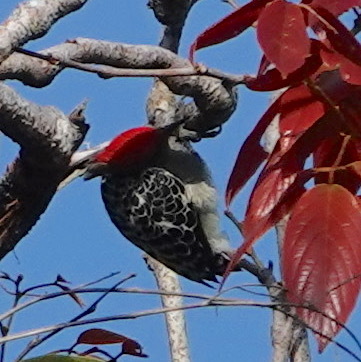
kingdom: Animalia
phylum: Chordata
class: Aves
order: Piciformes
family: Picidae
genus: Hemicircus
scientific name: Hemicircus concretus
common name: Grey-and-buff woodpecker
